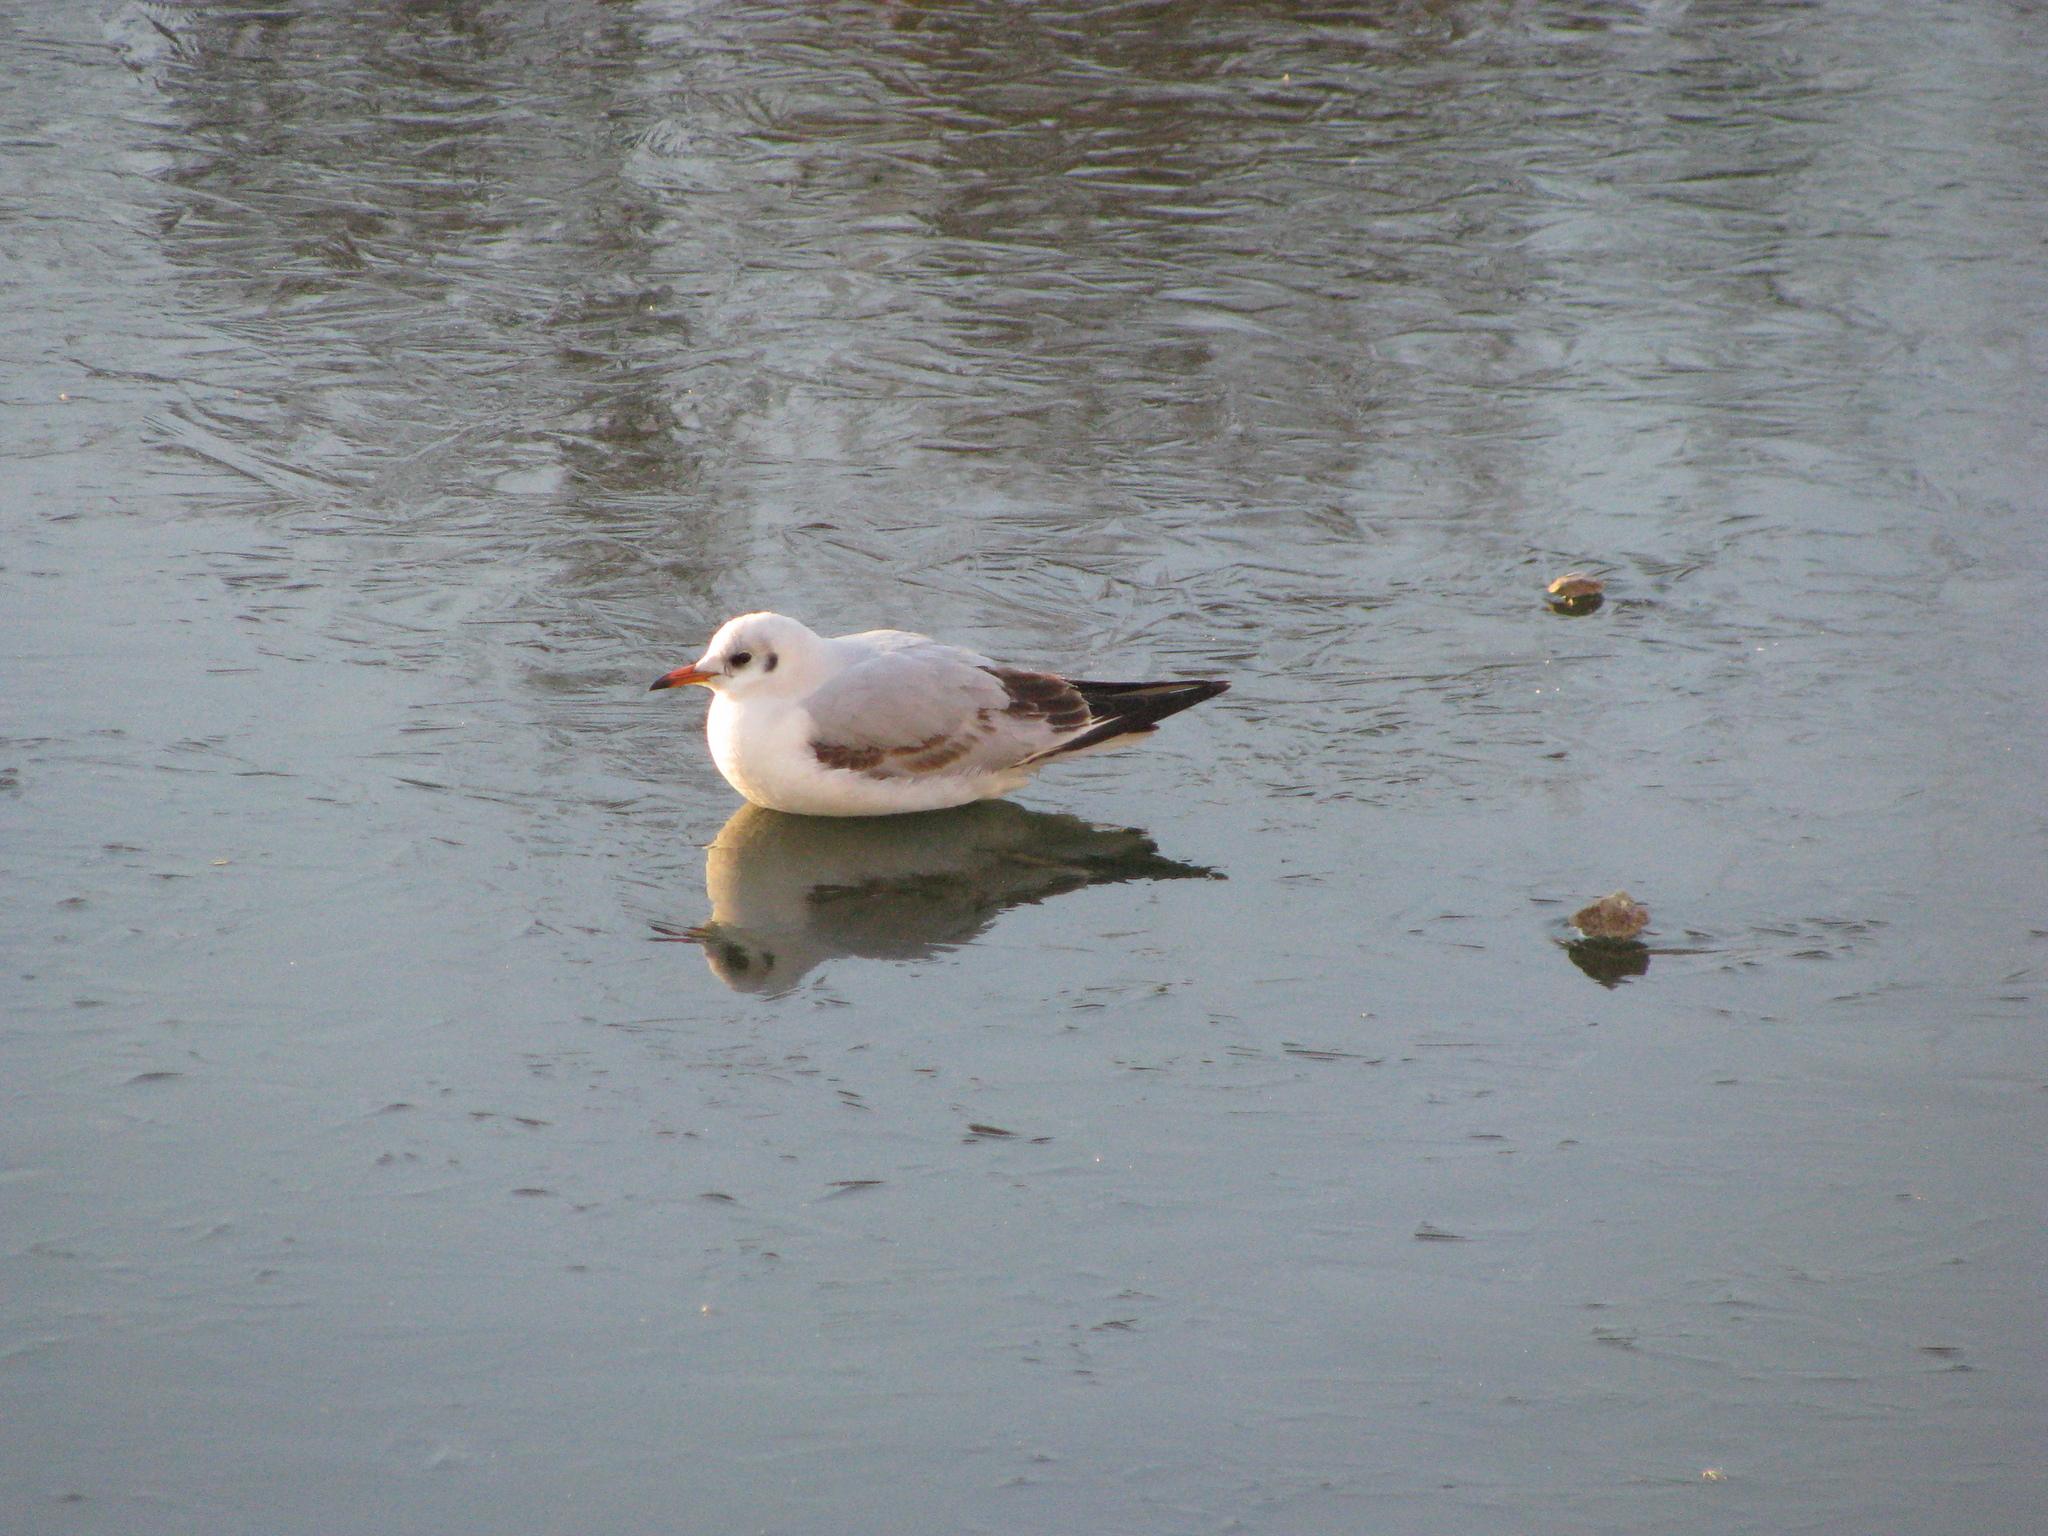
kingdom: Animalia
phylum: Chordata
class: Aves
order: Charadriiformes
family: Laridae
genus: Chroicocephalus
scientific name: Chroicocephalus ridibundus
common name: Black-headed gull
